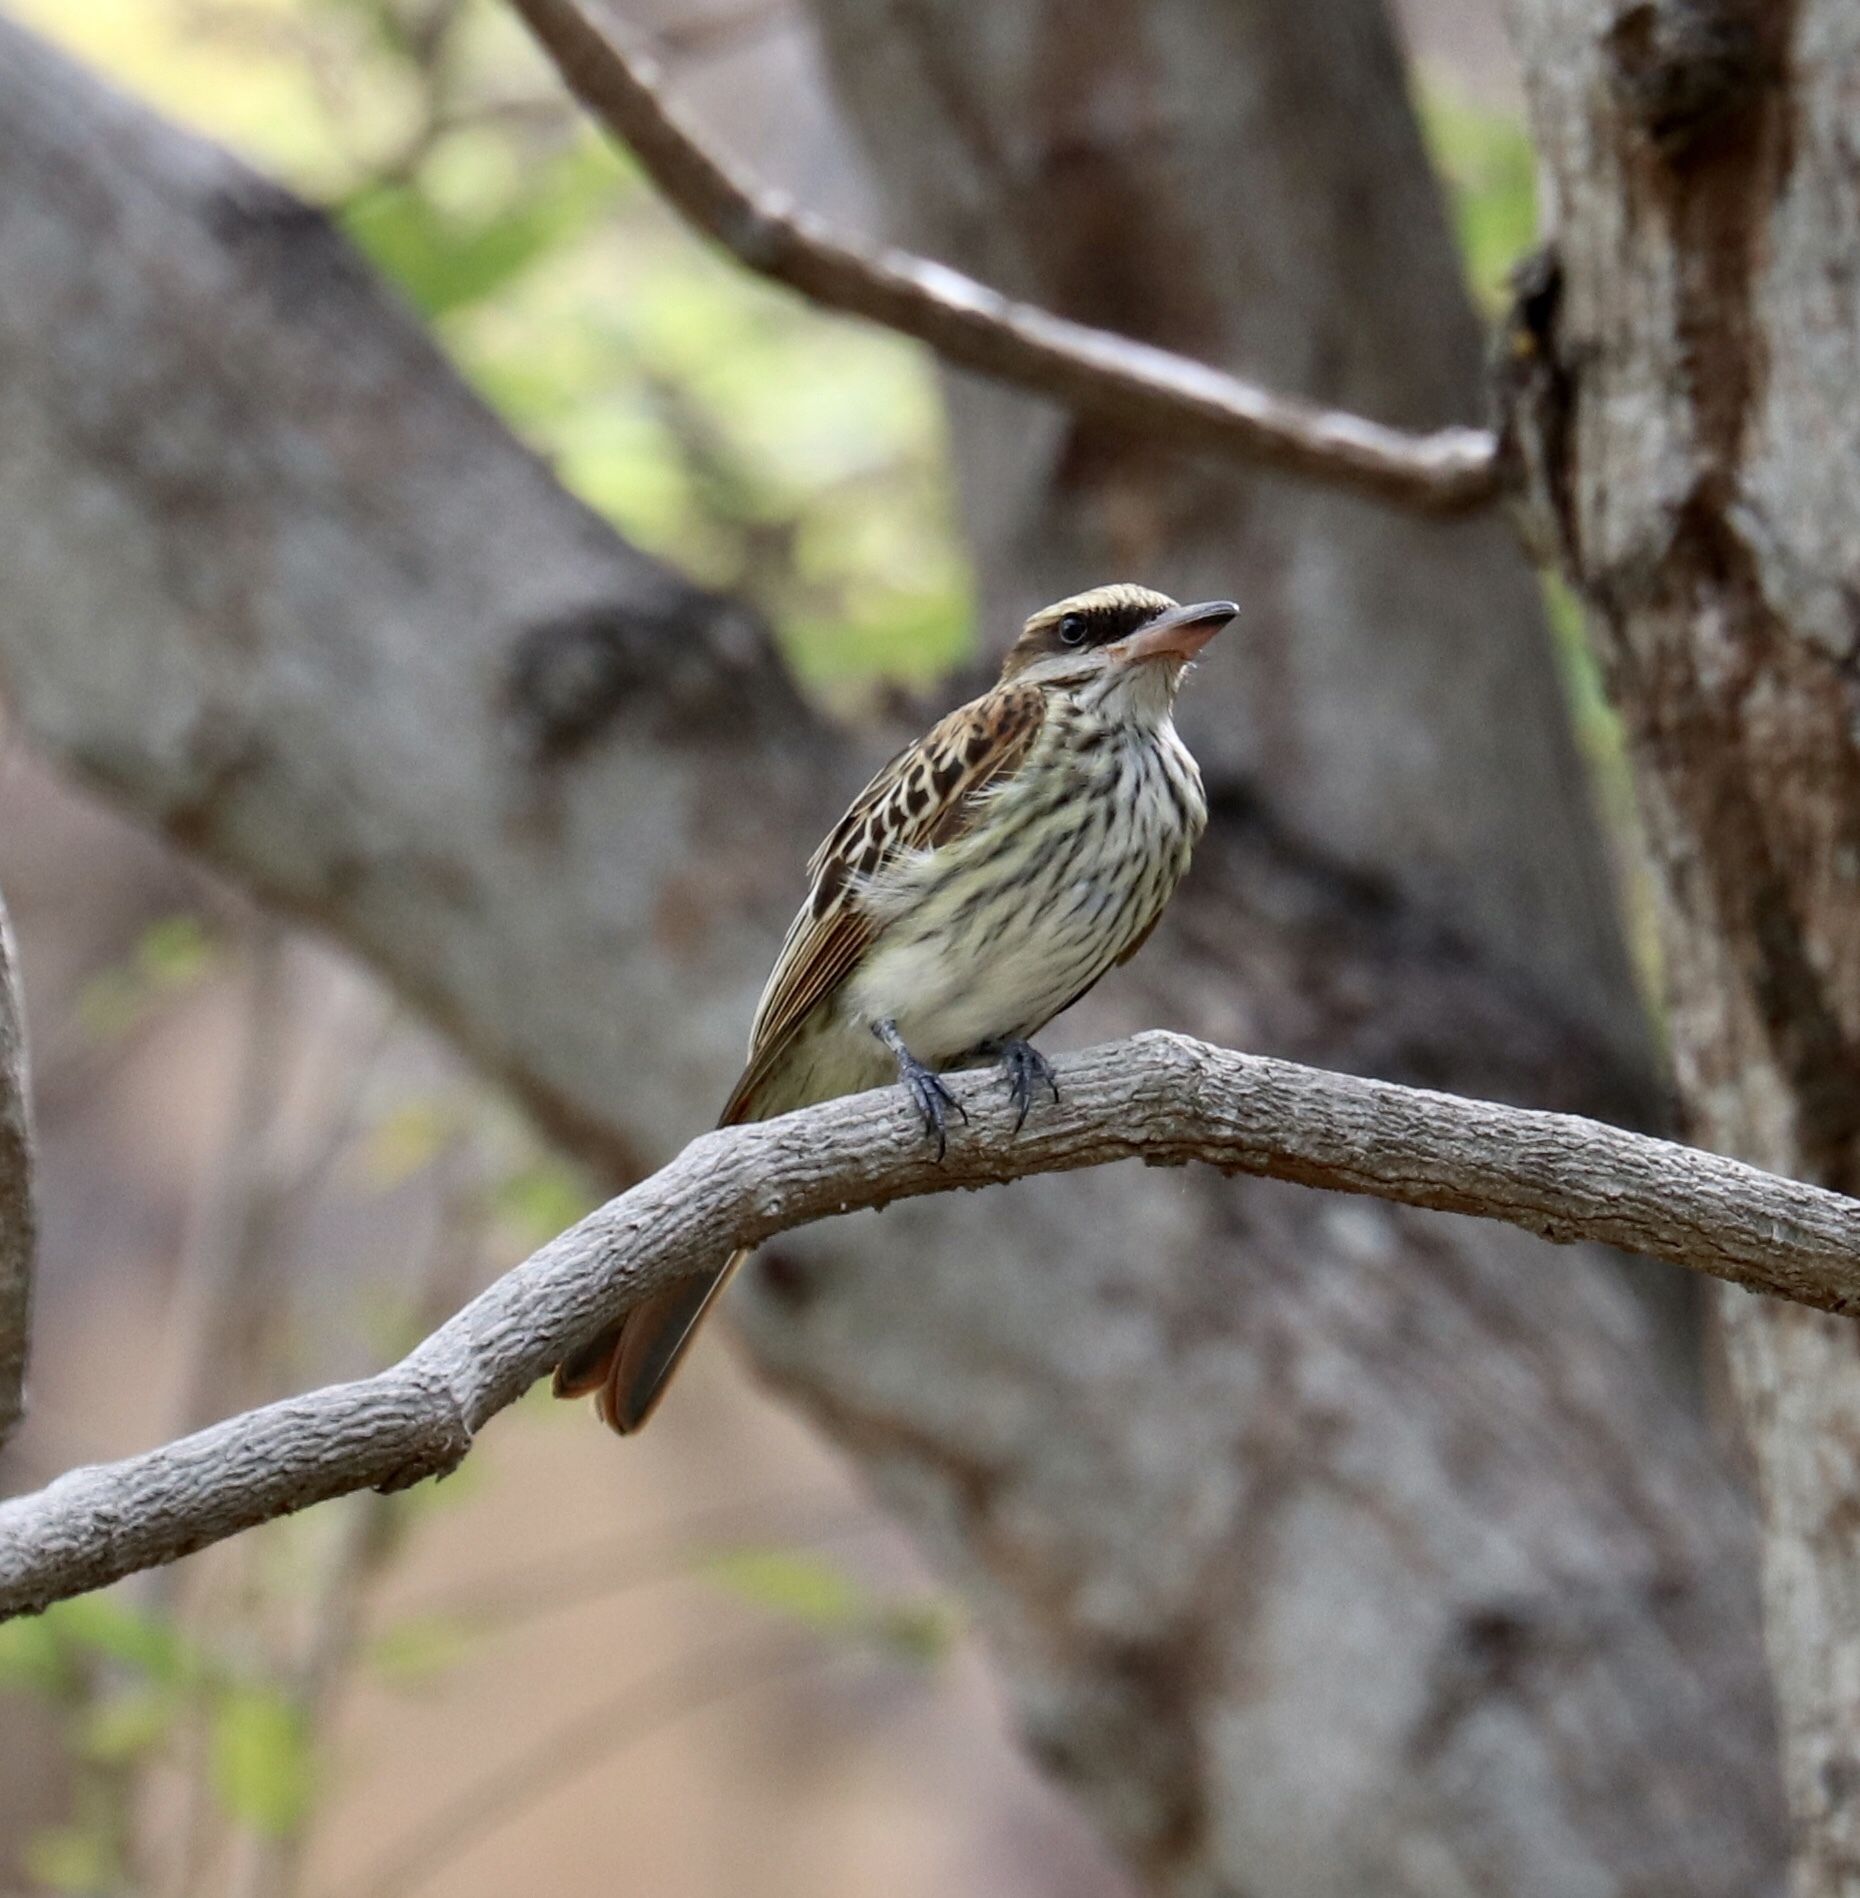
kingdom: Animalia
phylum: Chordata
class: Aves
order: Passeriformes
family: Tyrannidae
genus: Myiodynastes
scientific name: Myiodynastes maculatus
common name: Streaked flycatcher
